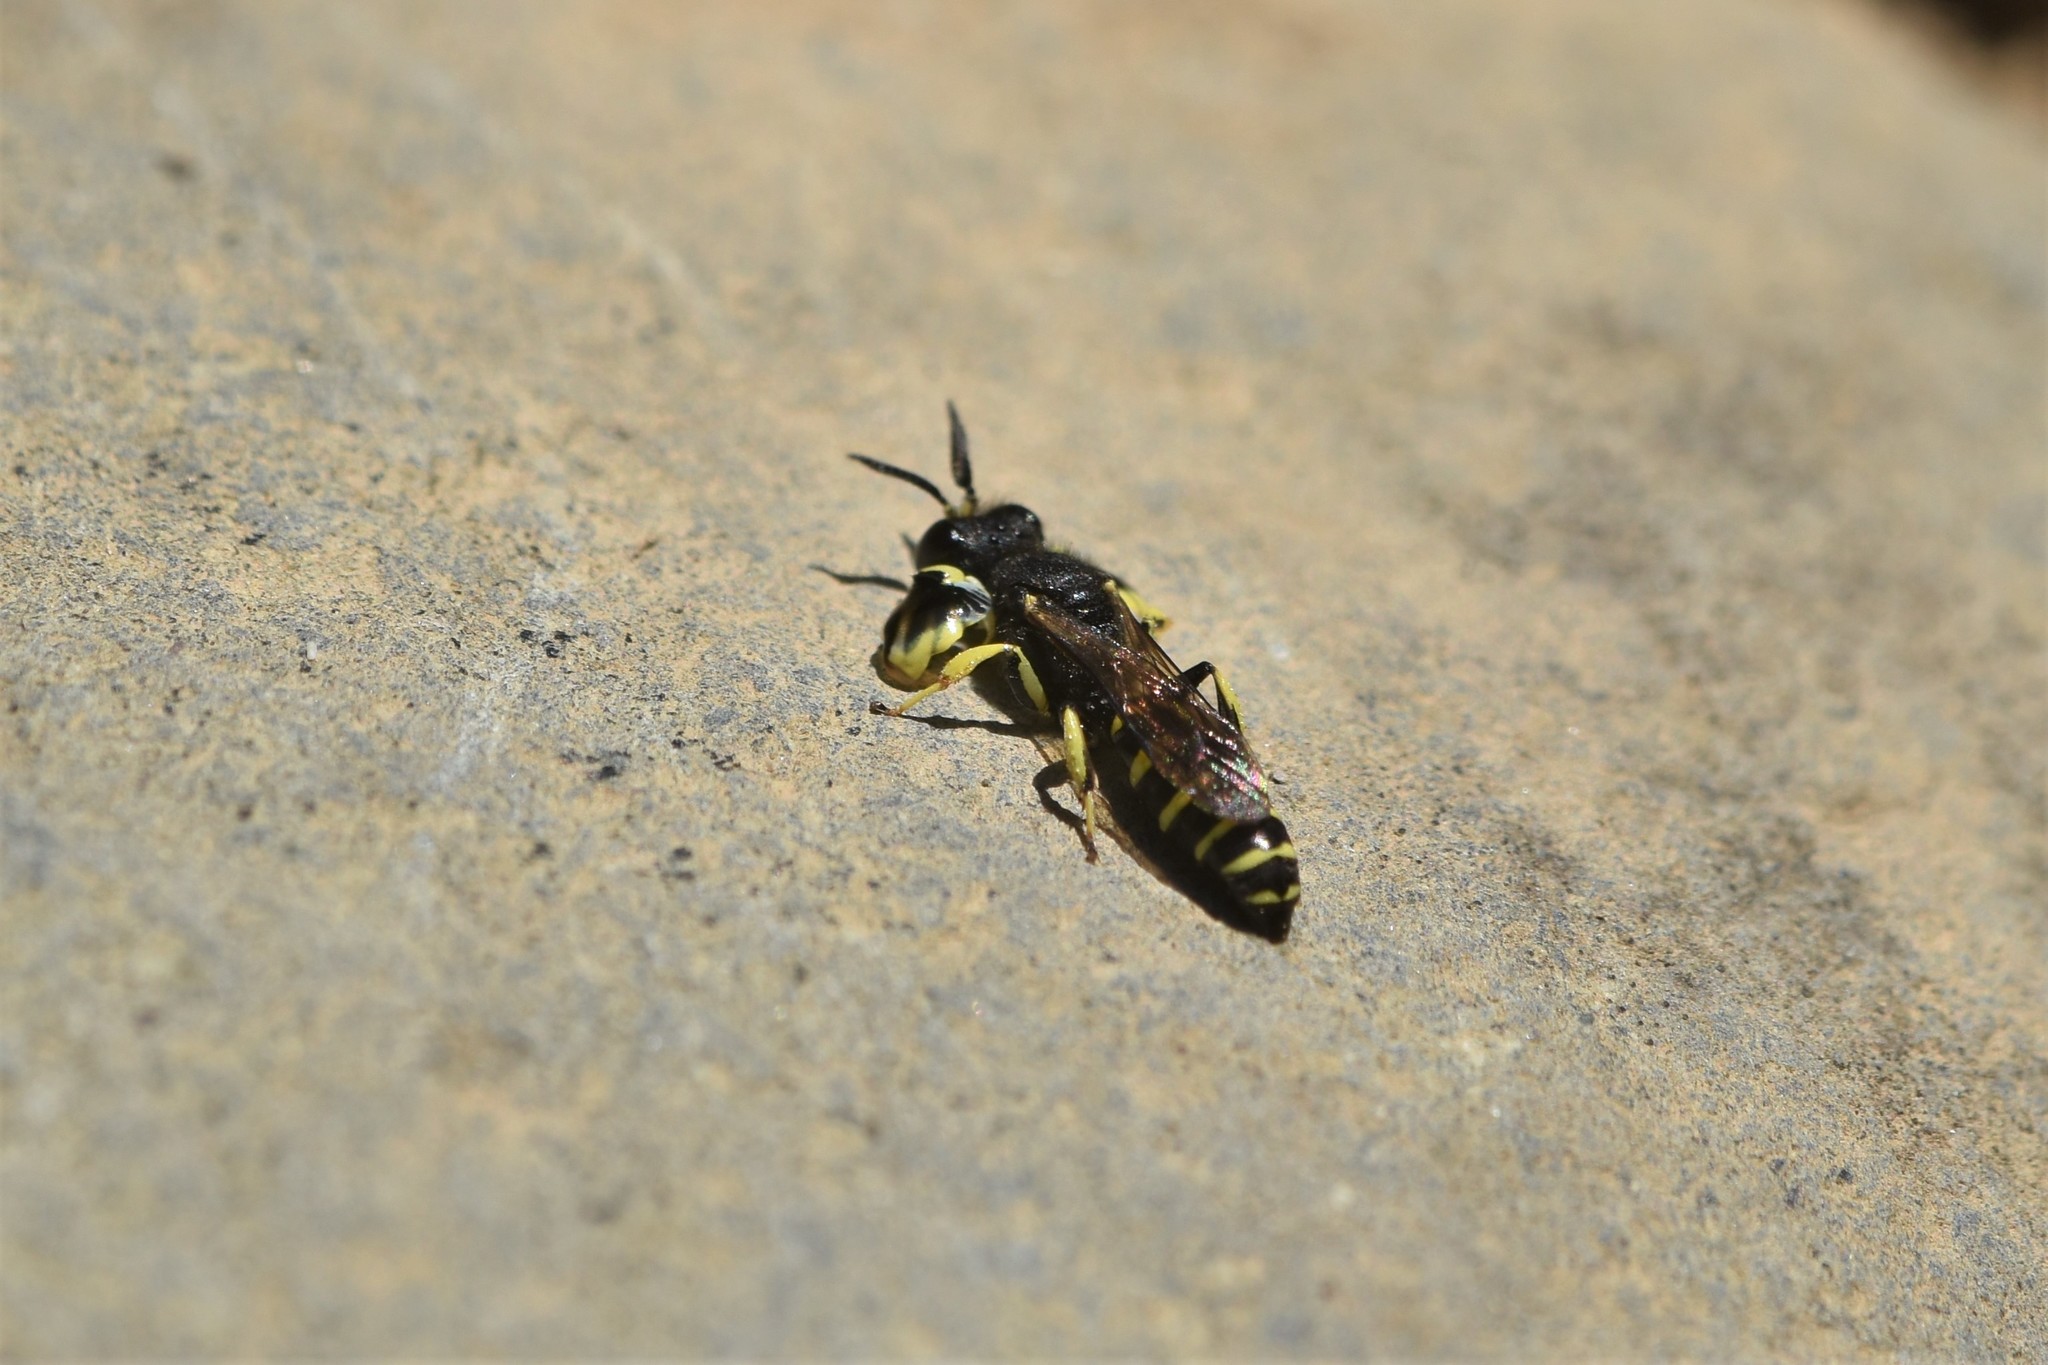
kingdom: Animalia
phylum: Arthropoda
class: Insecta
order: Hymenoptera
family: Crabronidae
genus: Crabro
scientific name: Crabro latipes
